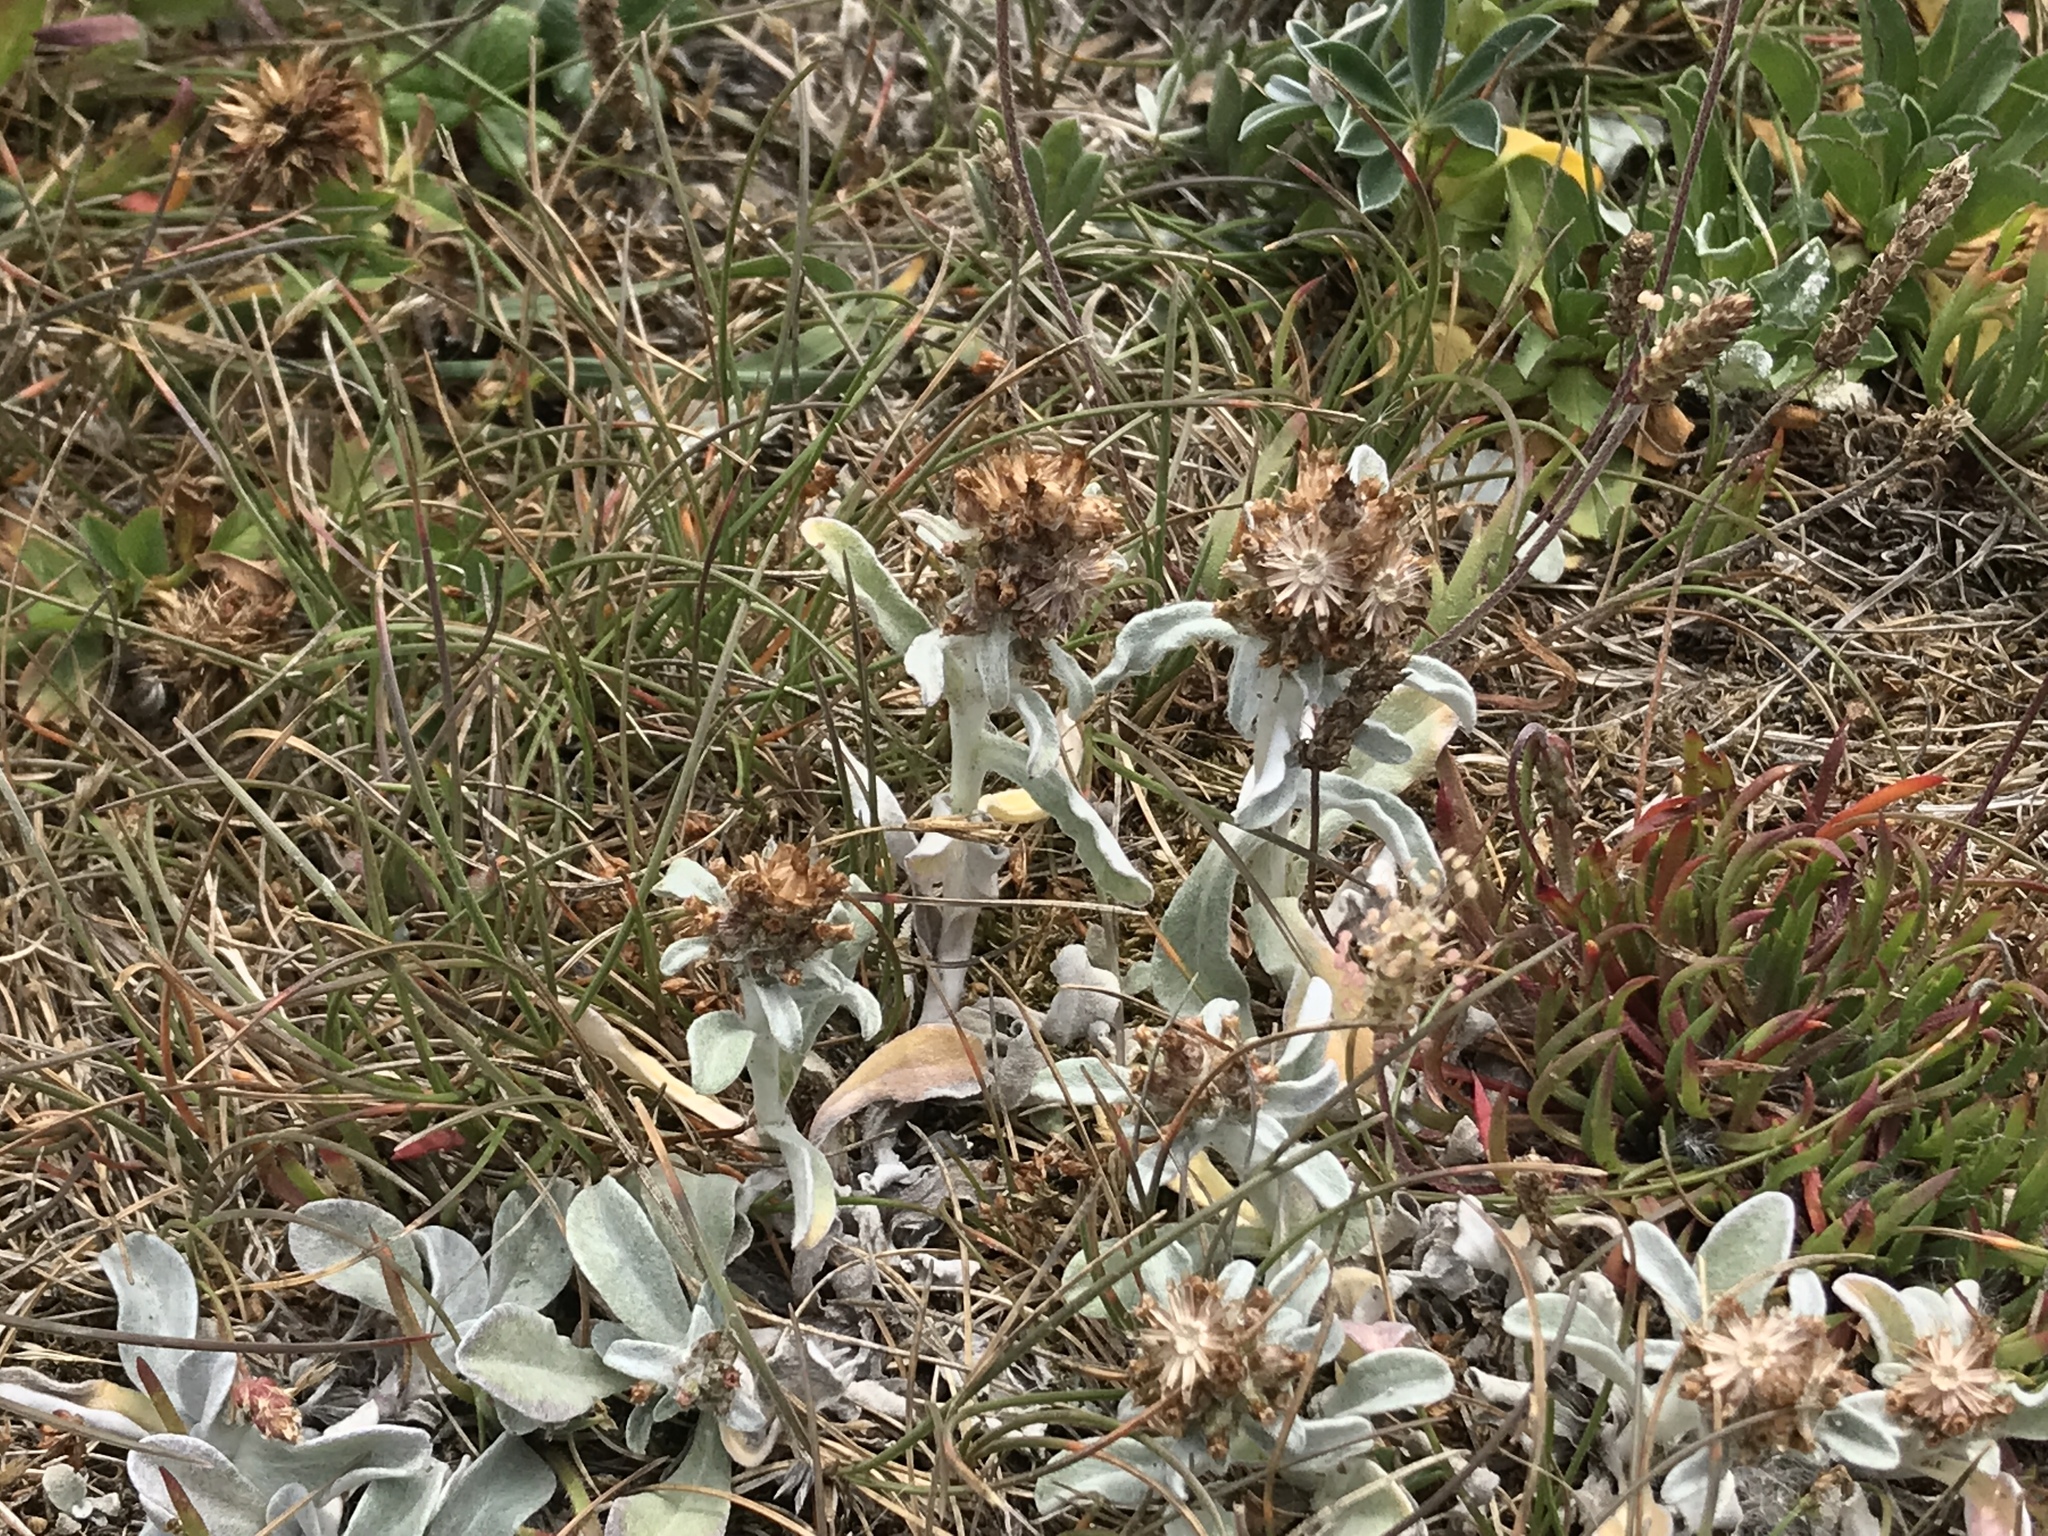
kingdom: Plantae
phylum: Tracheophyta
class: Magnoliopsida
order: Asterales
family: Asteraceae
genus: Gamochaeta
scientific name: Gamochaeta ustulata
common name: Pacific cudweed
